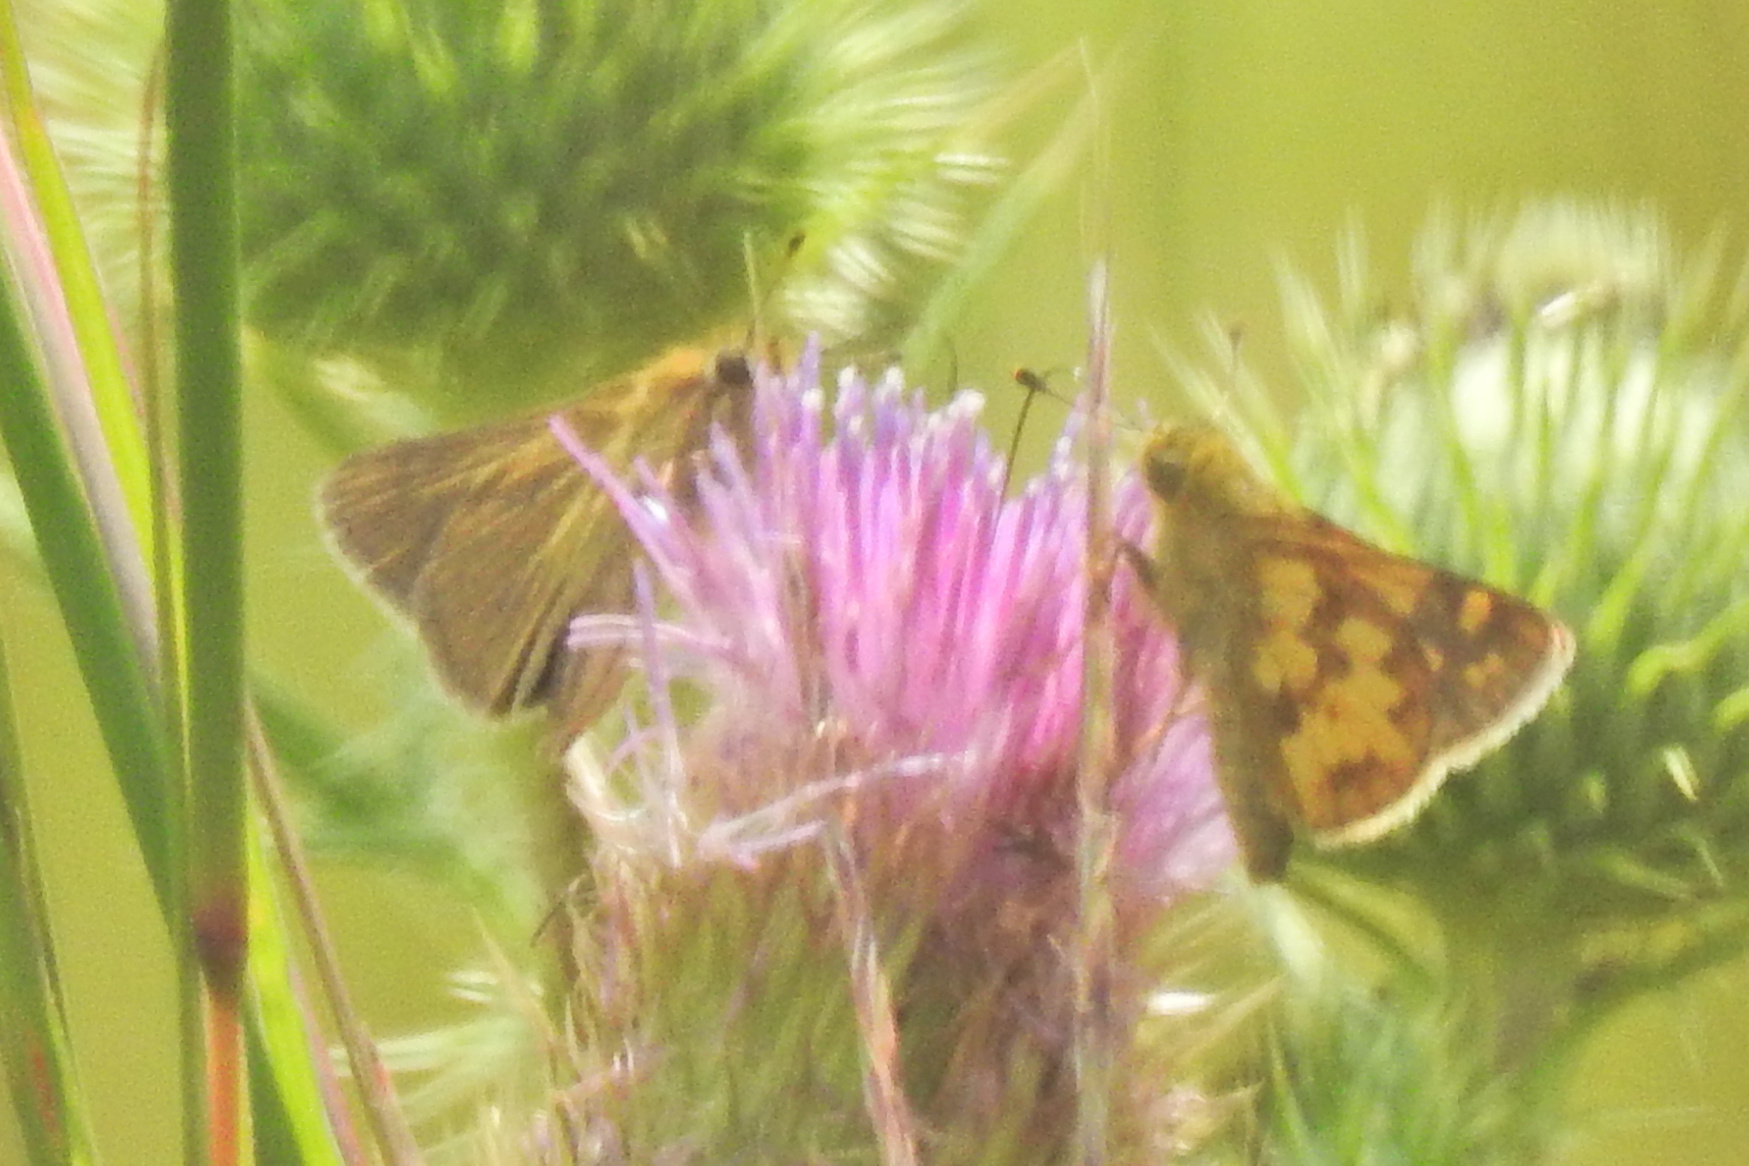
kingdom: Animalia
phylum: Arthropoda
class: Insecta
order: Lepidoptera
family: Hesperiidae
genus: Nastra
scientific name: Nastra lherminier
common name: Swarthy skipper
